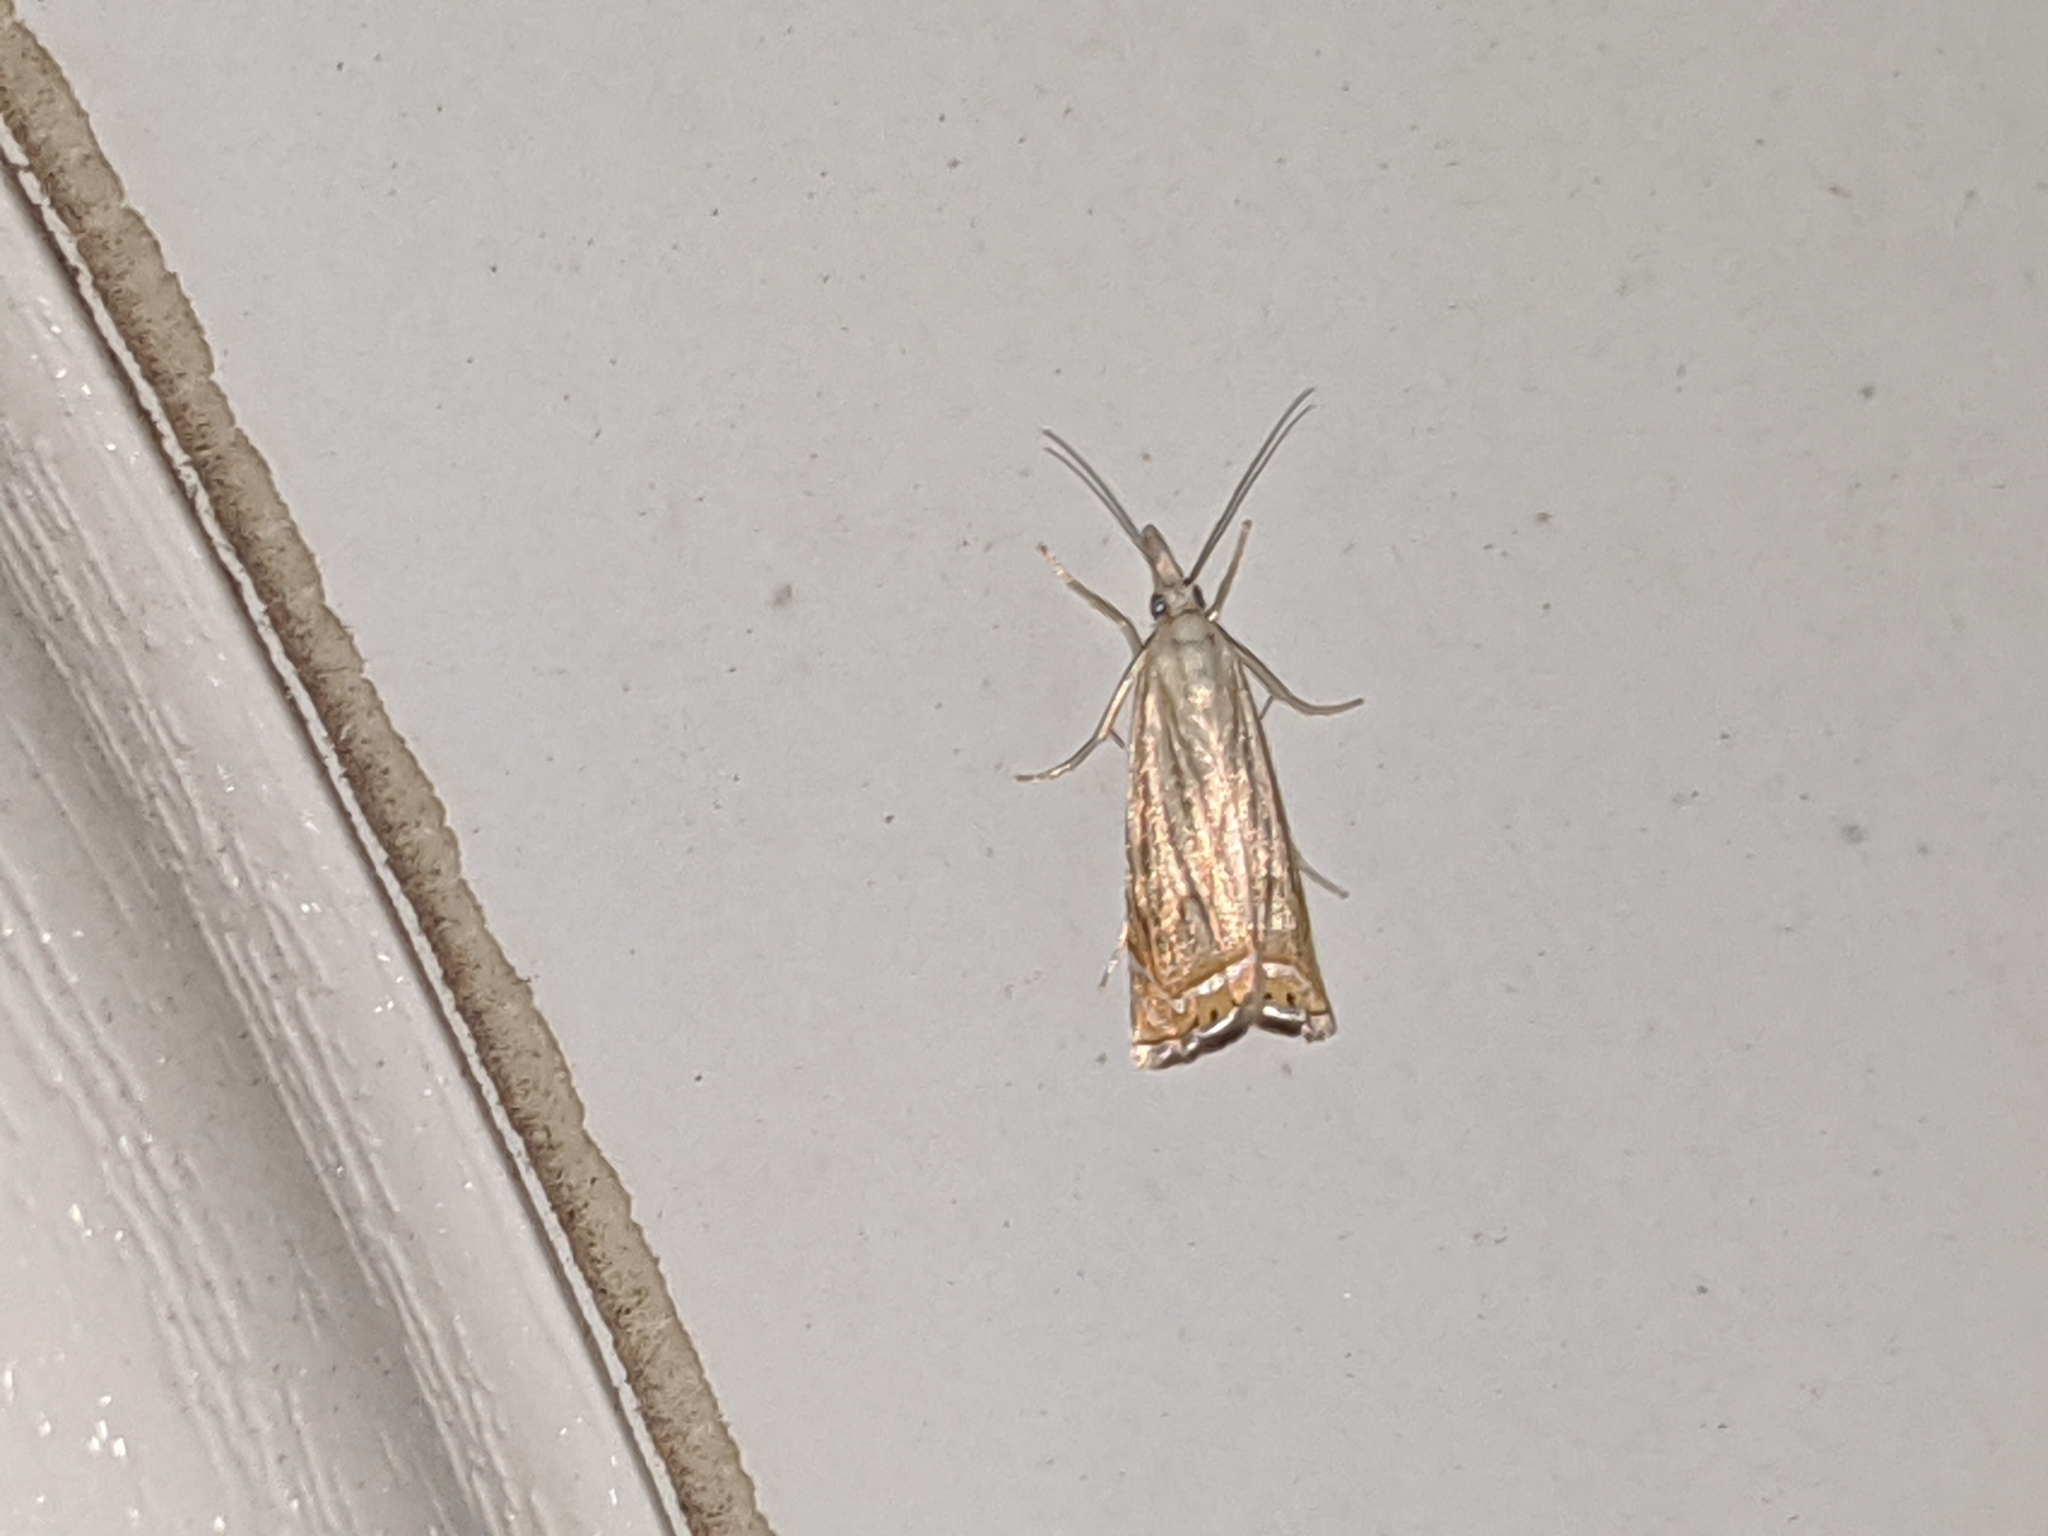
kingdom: Animalia
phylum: Arthropoda
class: Insecta
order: Lepidoptera
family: Crambidae
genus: Chrysoteuchia
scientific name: Chrysoteuchia topiarius
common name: Topiary grass-veneer
